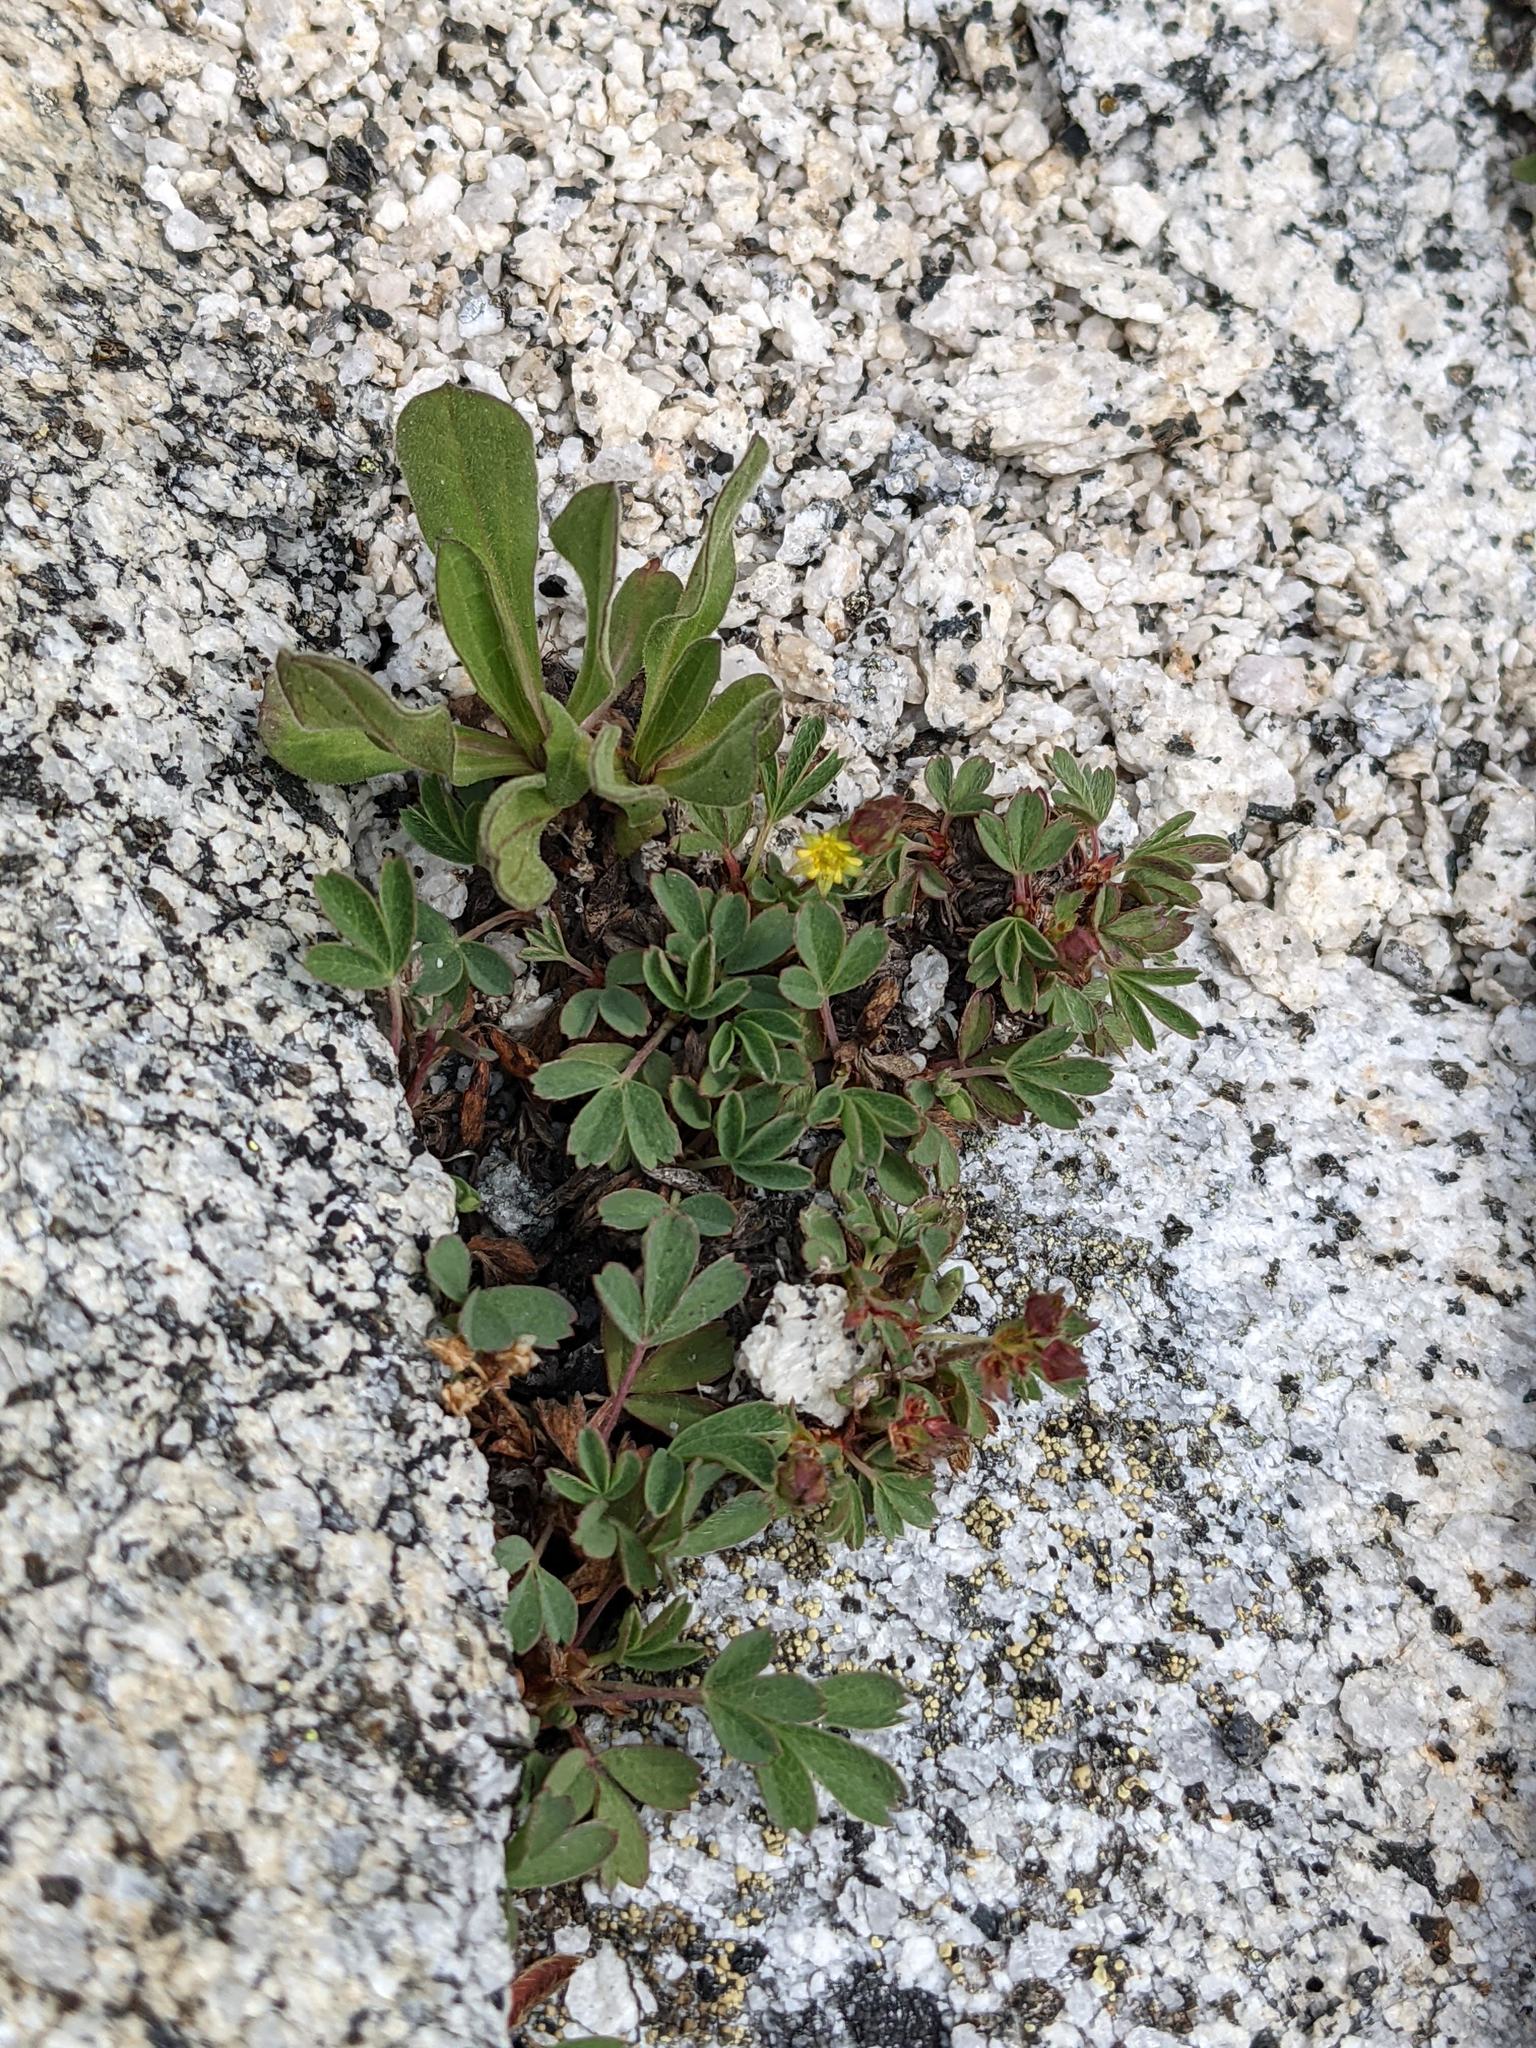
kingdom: Plantae
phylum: Tracheophyta
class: Magnoliopsida
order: Rosales
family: Rosaceae
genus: Sibbaldia
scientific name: Sibbaldia procumbens
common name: Creeping sibbaldia
